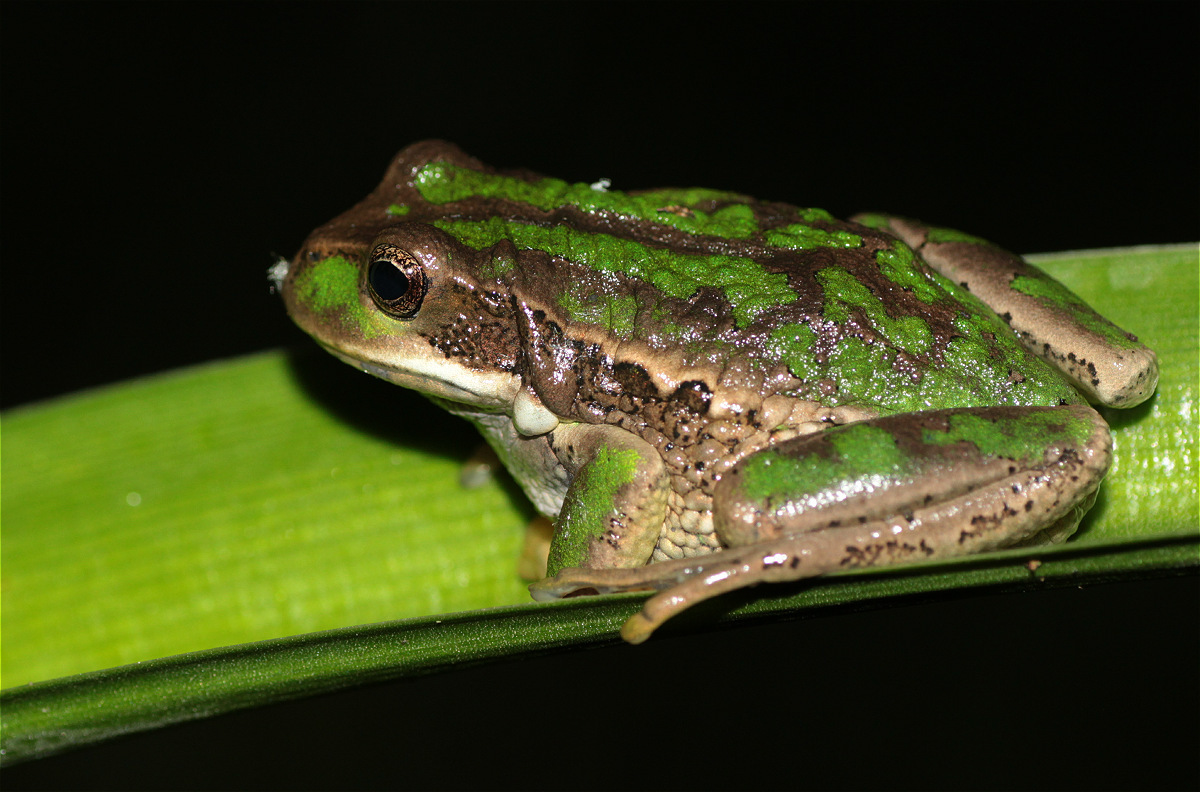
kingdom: Animalia
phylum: Chordata
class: Amphibia
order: Anura
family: Hemiphractidae
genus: Gastrotheca
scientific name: Gastrotheca cuencana
